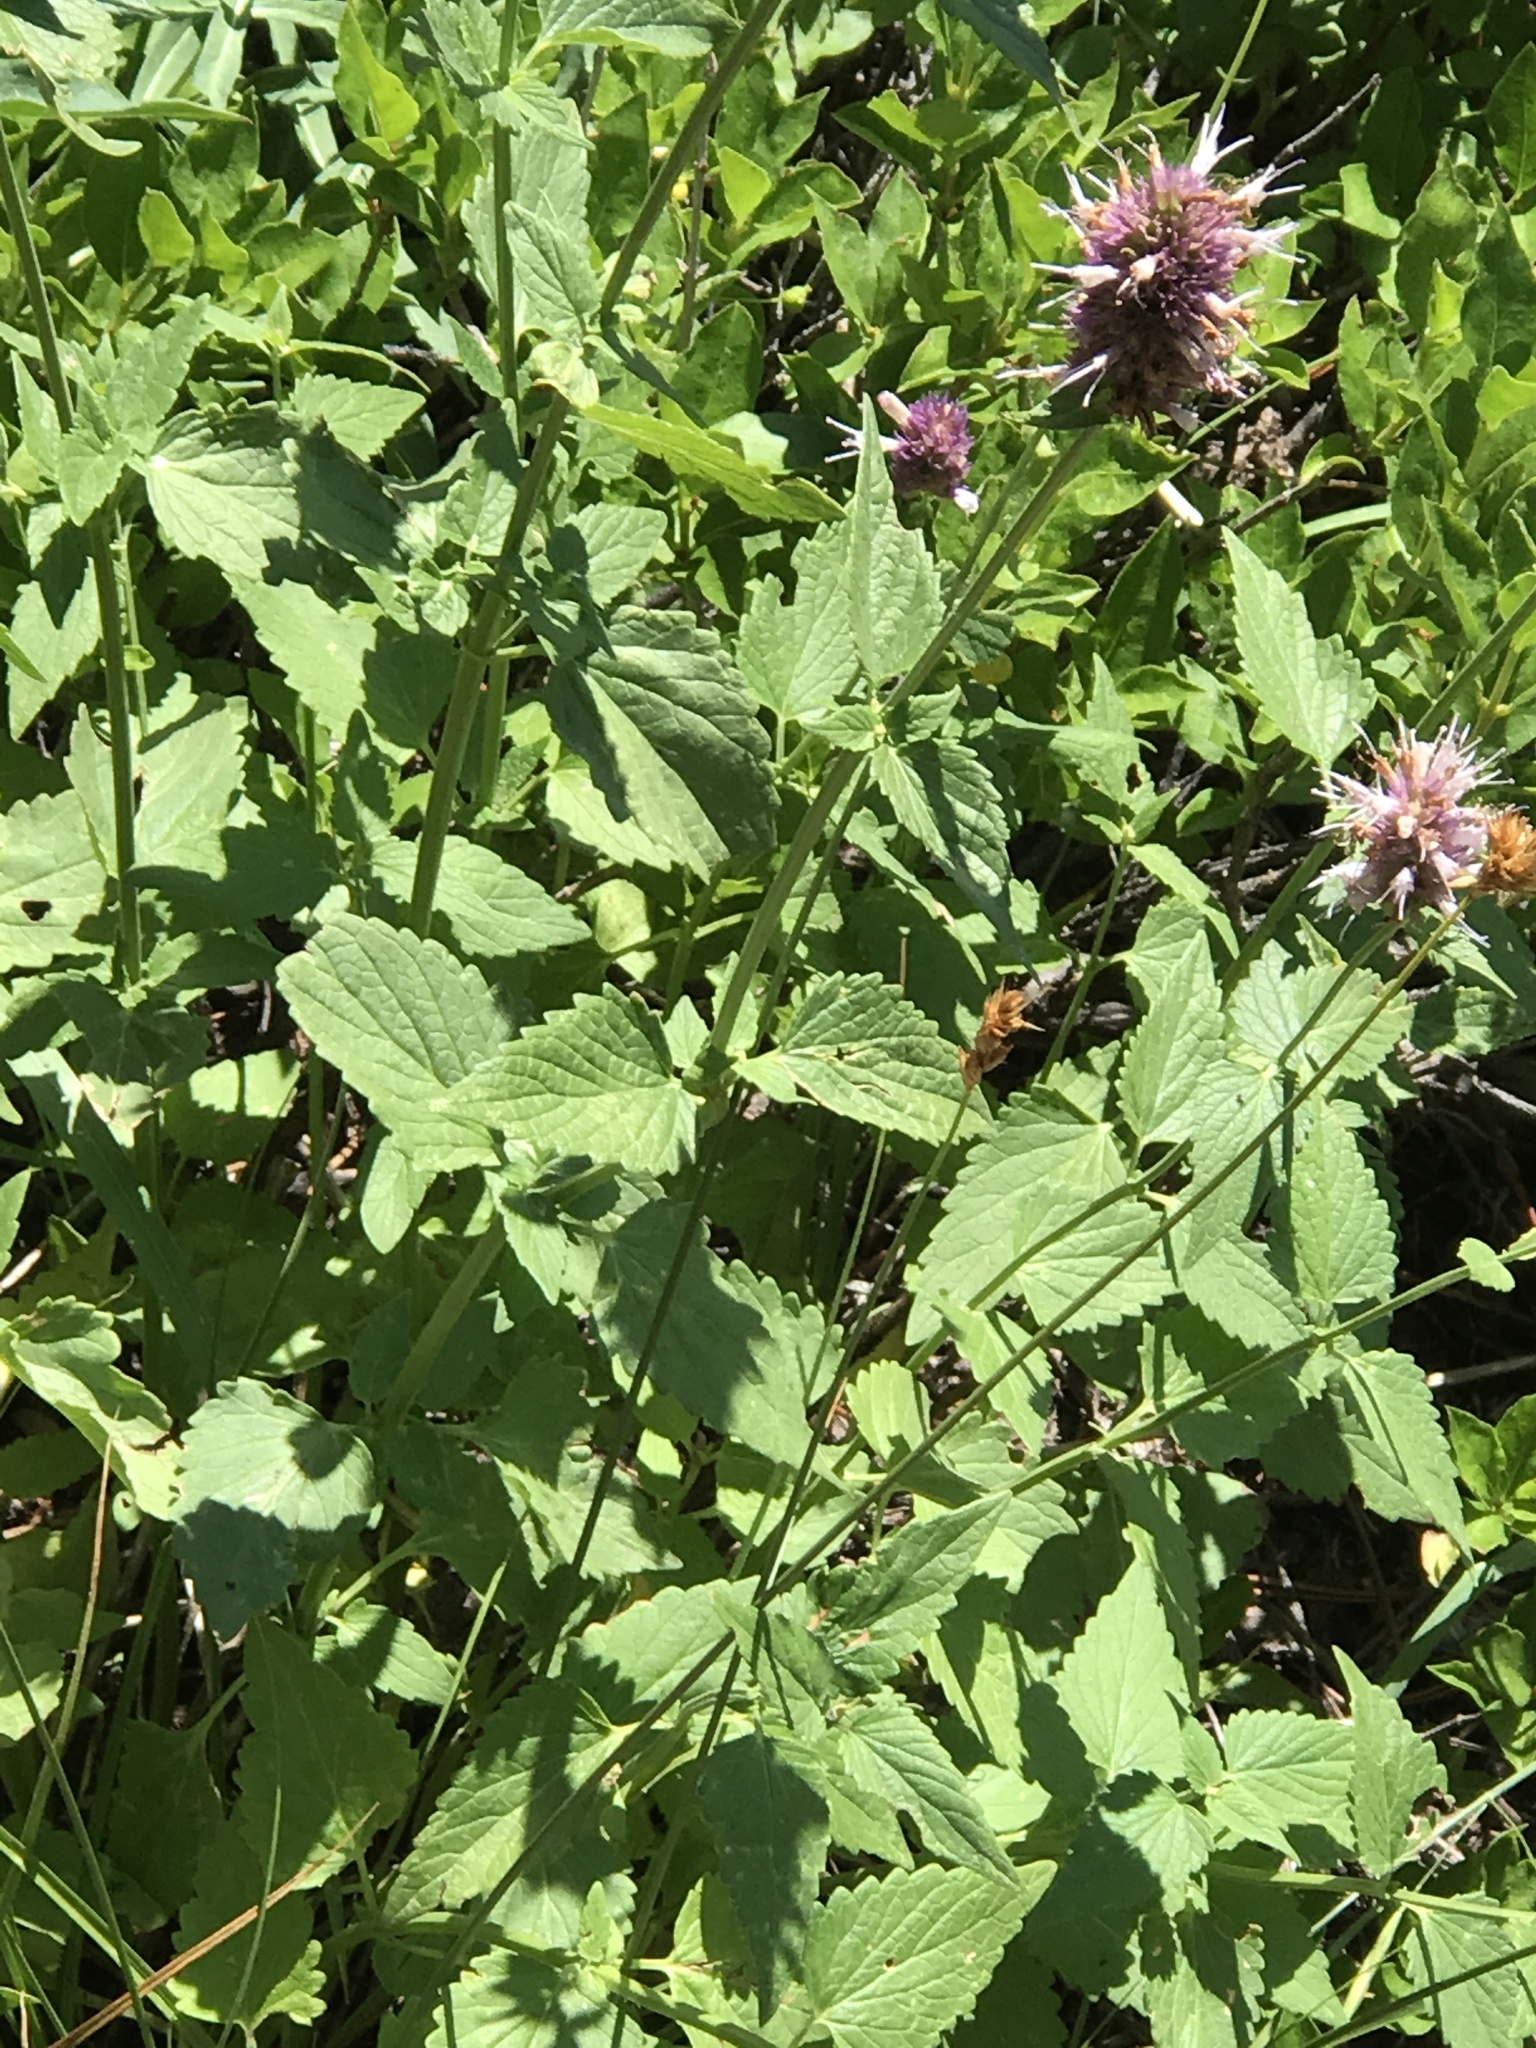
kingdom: Plantae
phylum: Tracheophyta
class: Magnoliopsida
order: Lamiales
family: Lamiaceae
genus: Agastache
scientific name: Agastache urticifolia
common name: Horsemint giant hyssop
